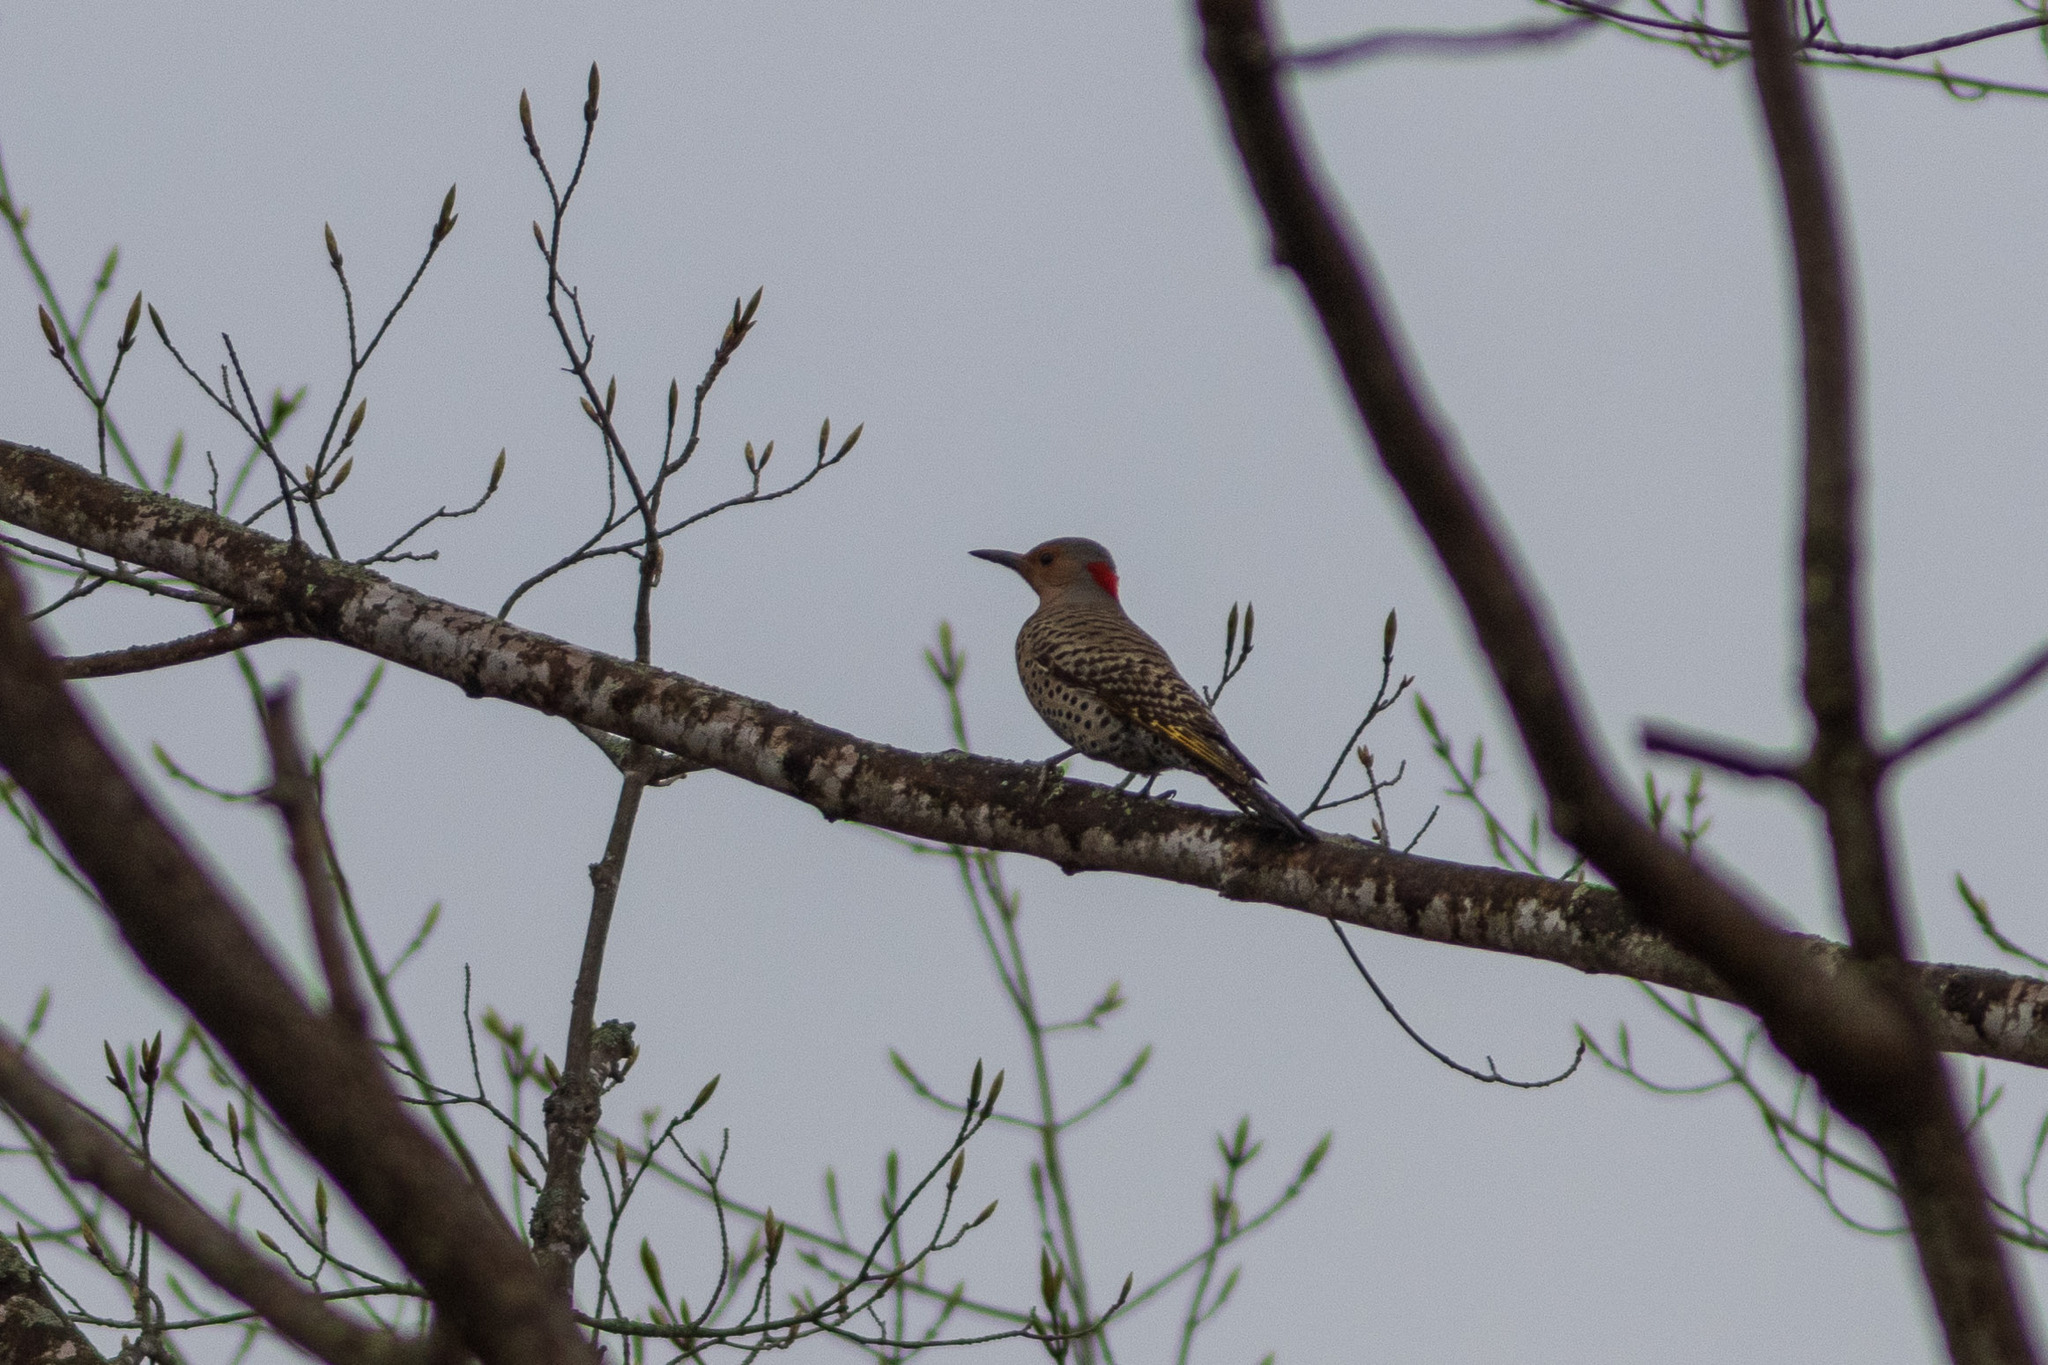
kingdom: Animalia
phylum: Chordata
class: Aves
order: Piciformes
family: Picidae
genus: Colaptes
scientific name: Colaptes auratus
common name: Northern flicker
